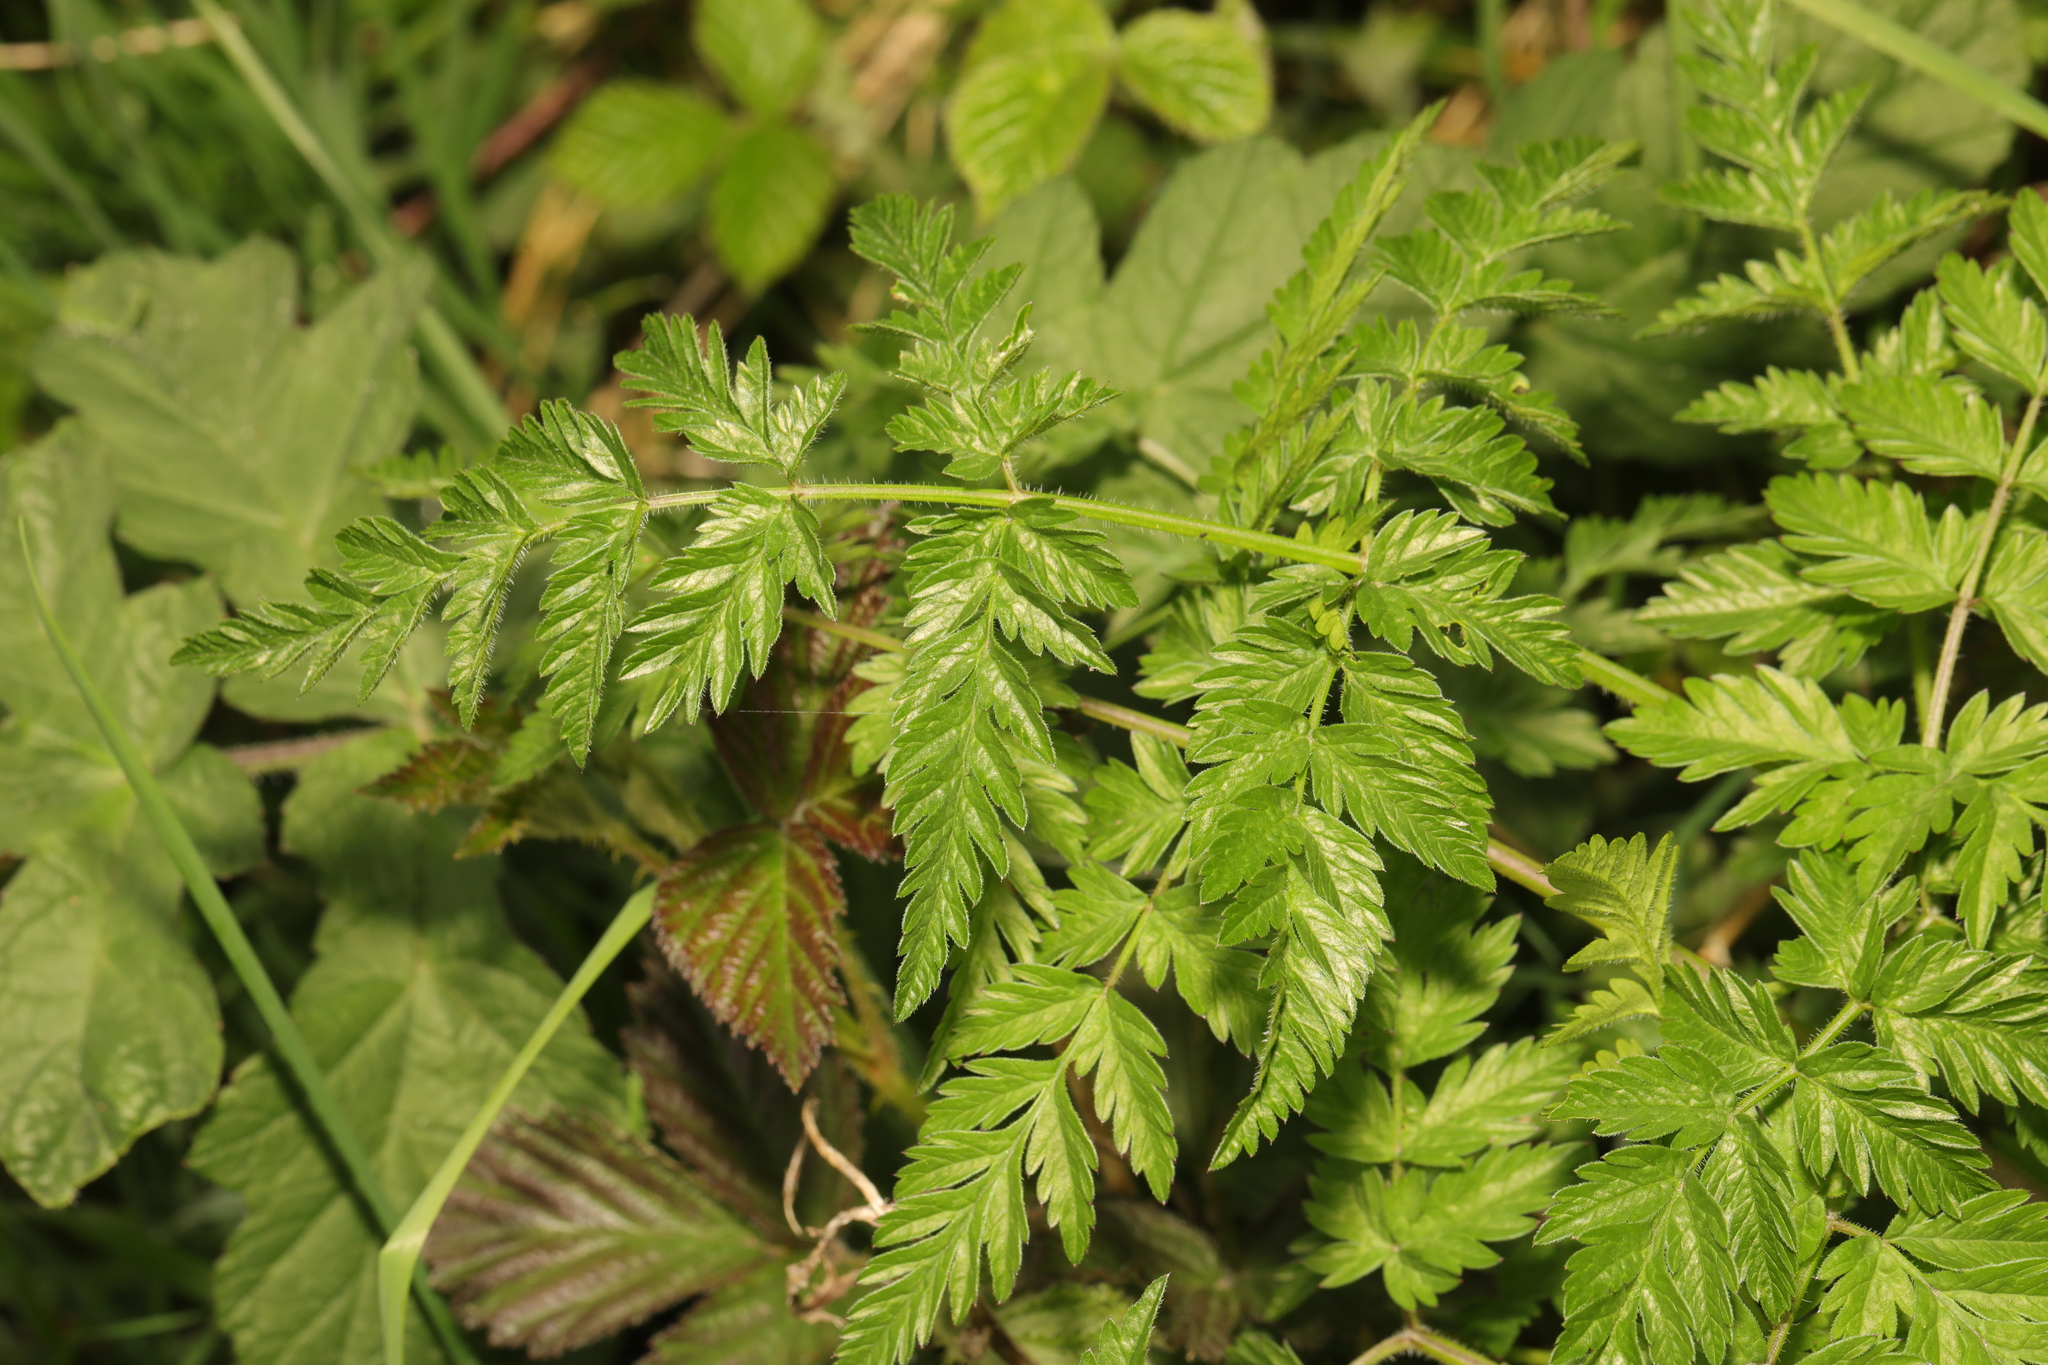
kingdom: Plantae
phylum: Tracheophyta
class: Magnoliopsida
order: Apiales
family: Apiaceae
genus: Anthriscus
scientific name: Anthriscus sylvestris
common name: Cow parsley
